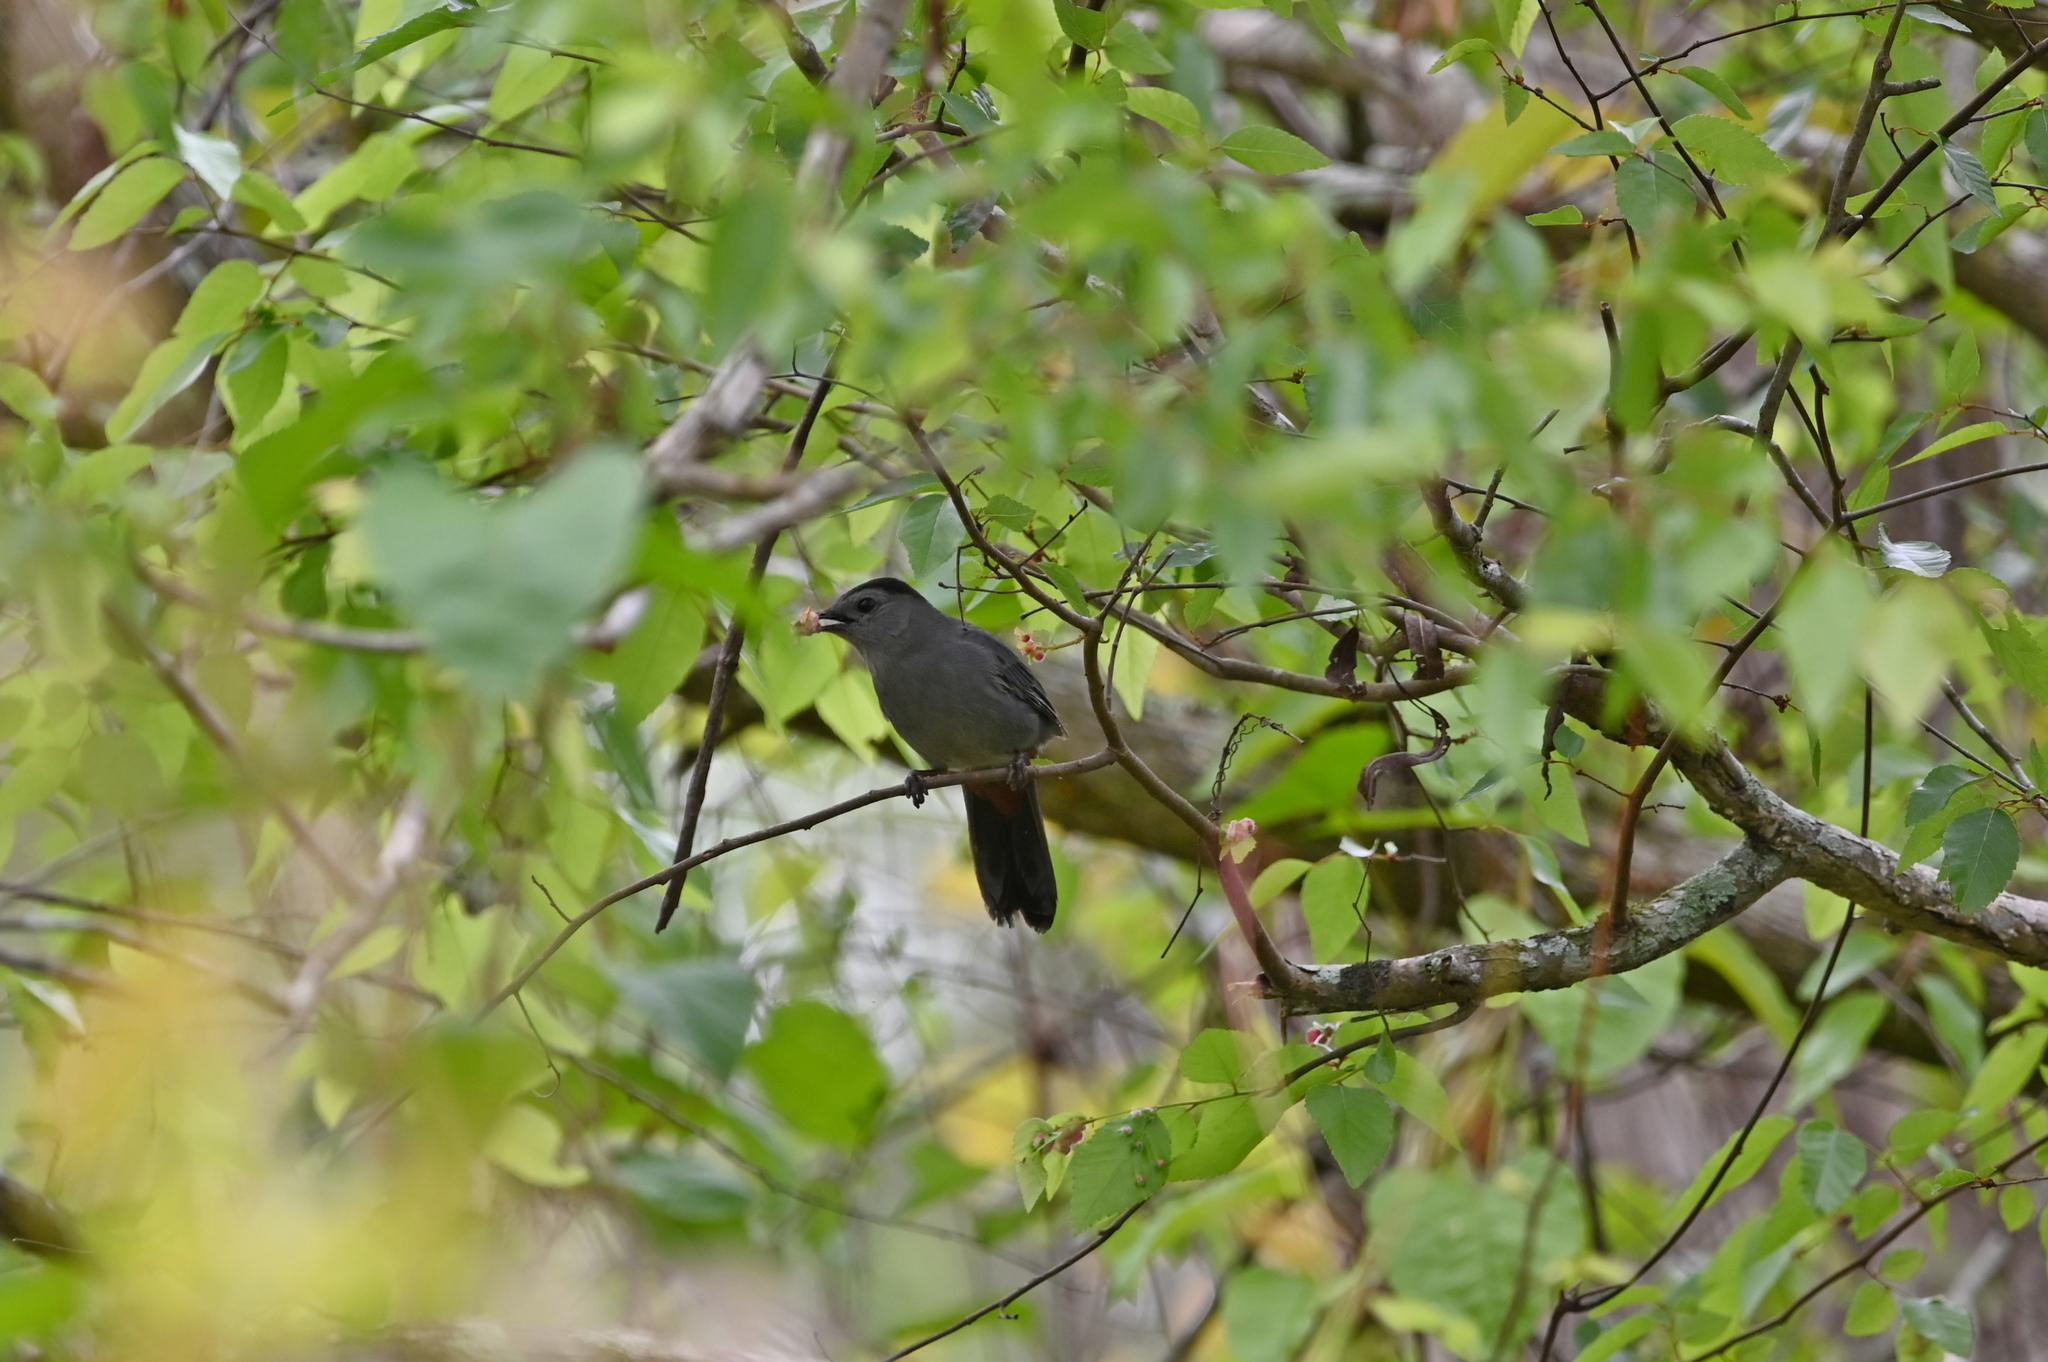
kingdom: Animalia
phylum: Chordata
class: Aves
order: Passeriformes
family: Mimidae
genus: Dumetella
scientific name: Dumetella carolinensis
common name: Gray catbird
